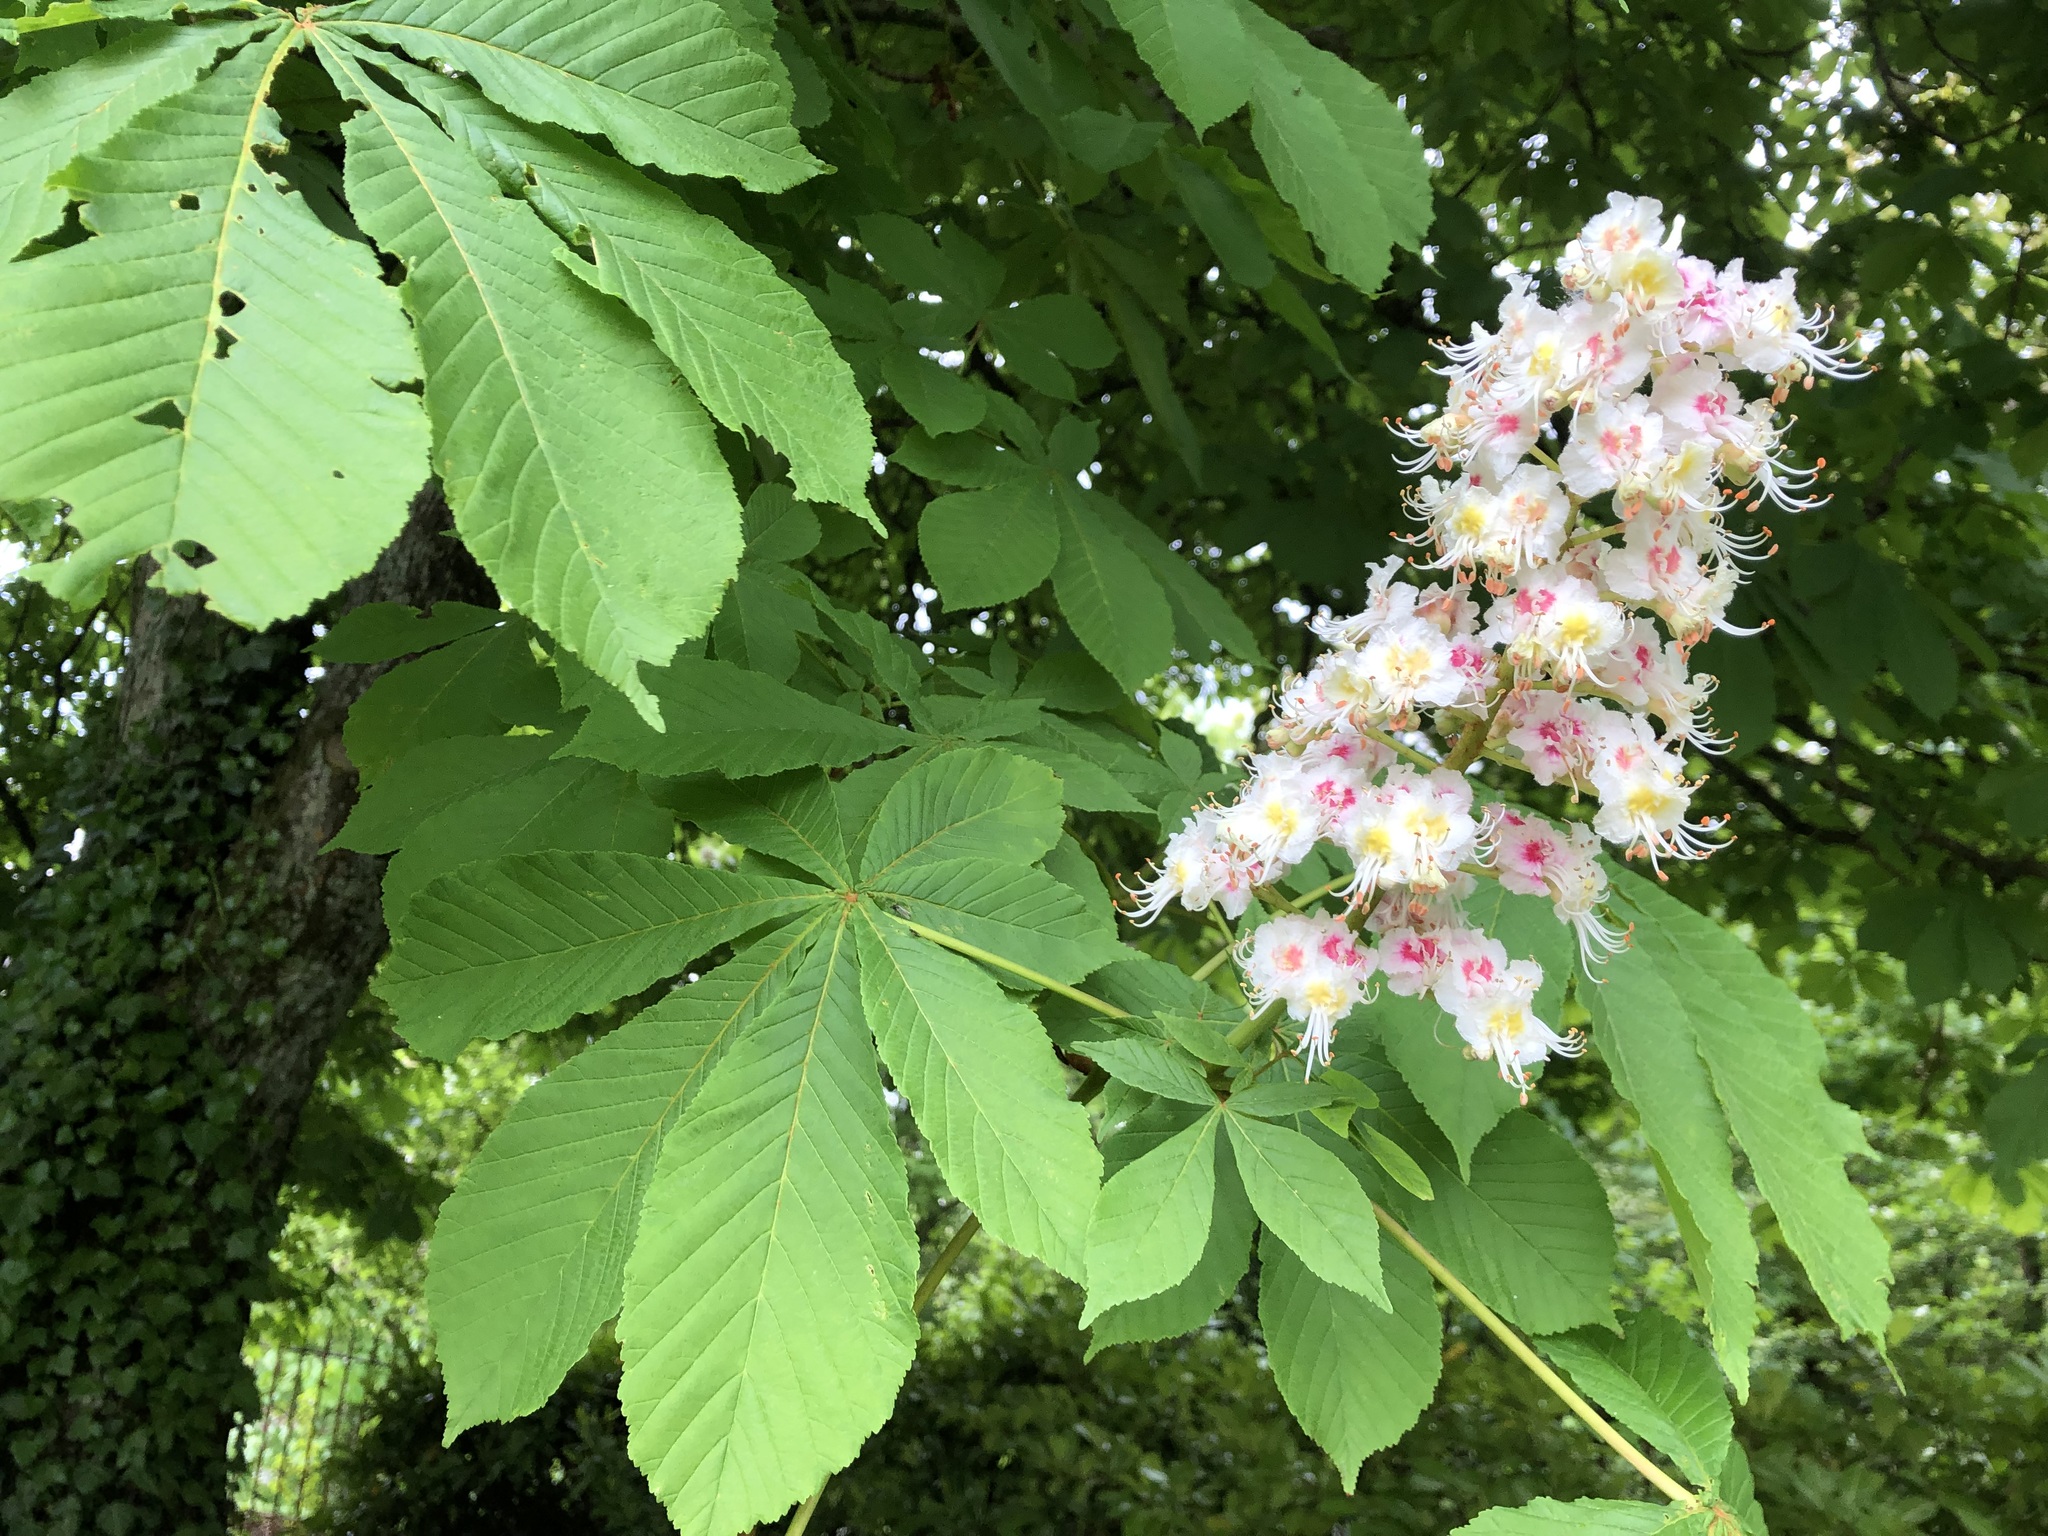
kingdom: Plantae
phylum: Tracheophyta
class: Magnoliopsida
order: Sapindales
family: Sapindaceae
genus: Aesculus
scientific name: Aesculus hippocastanum
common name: Horse-chestnut
